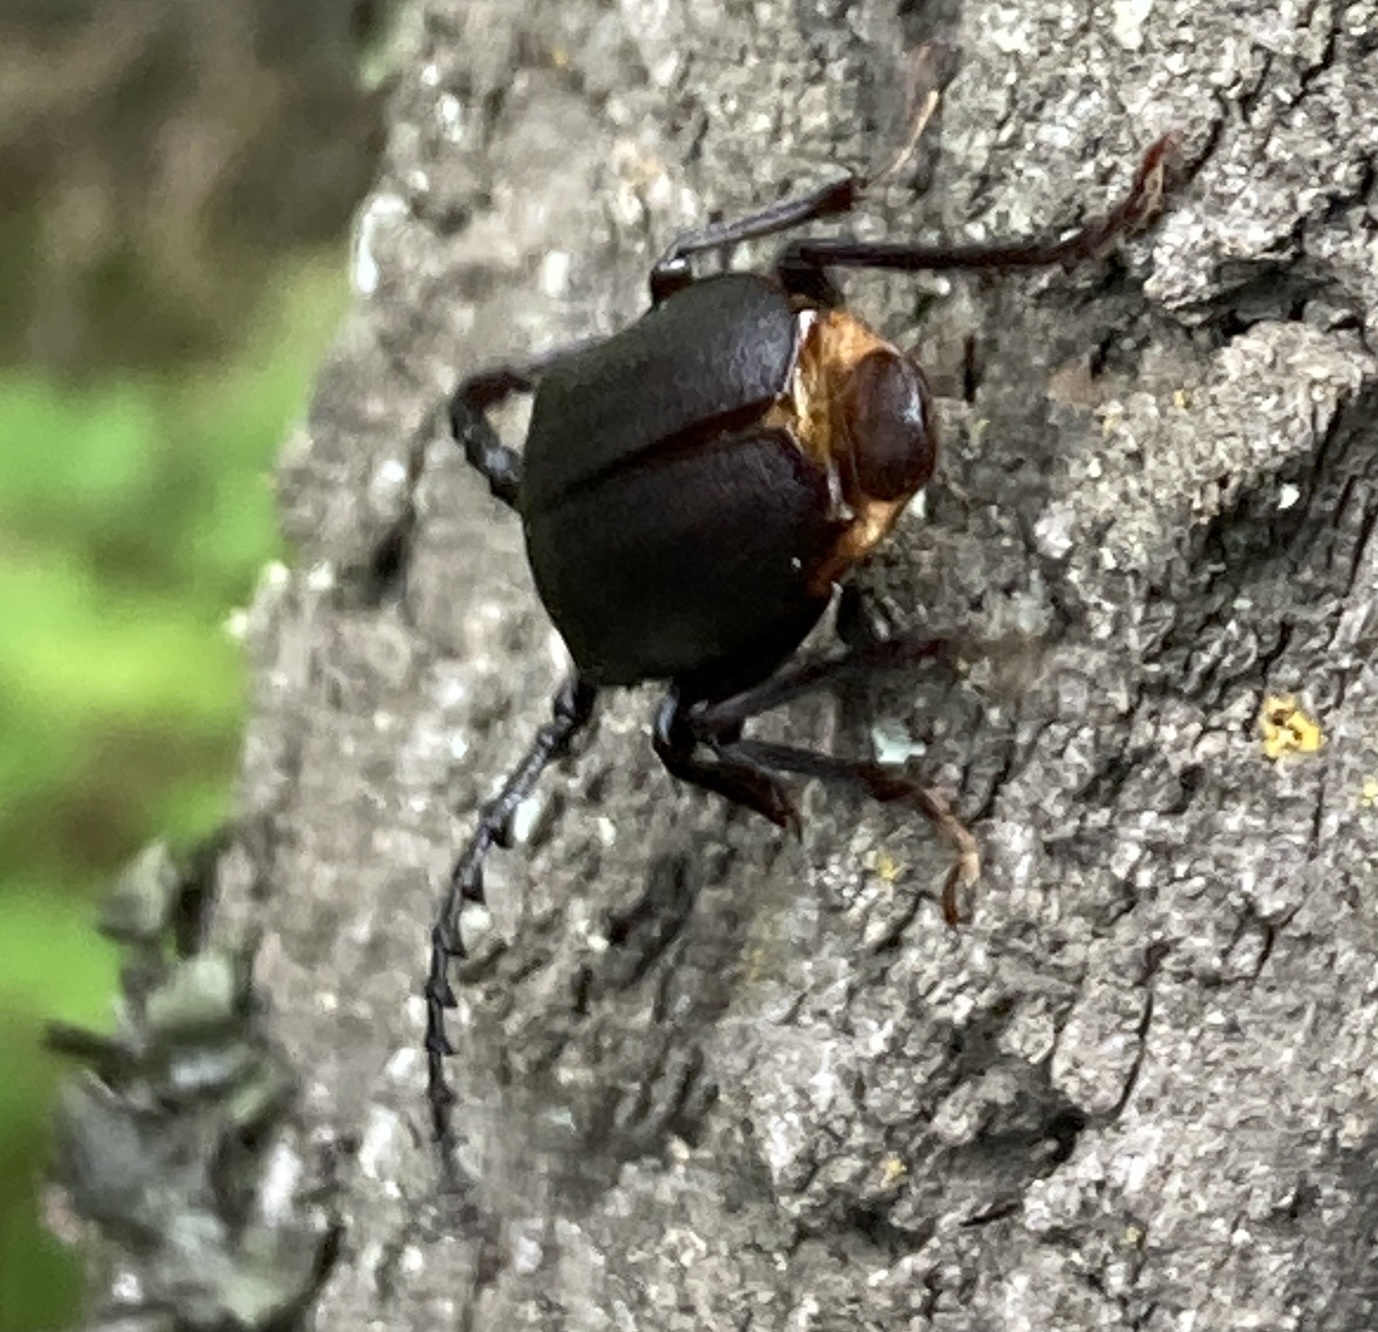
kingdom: Animalia
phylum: Arthropoda
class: Insecta
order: Coleoptera
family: Cerambycidae
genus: Prionus
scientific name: Prionus coriarius
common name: Tanner beetle
